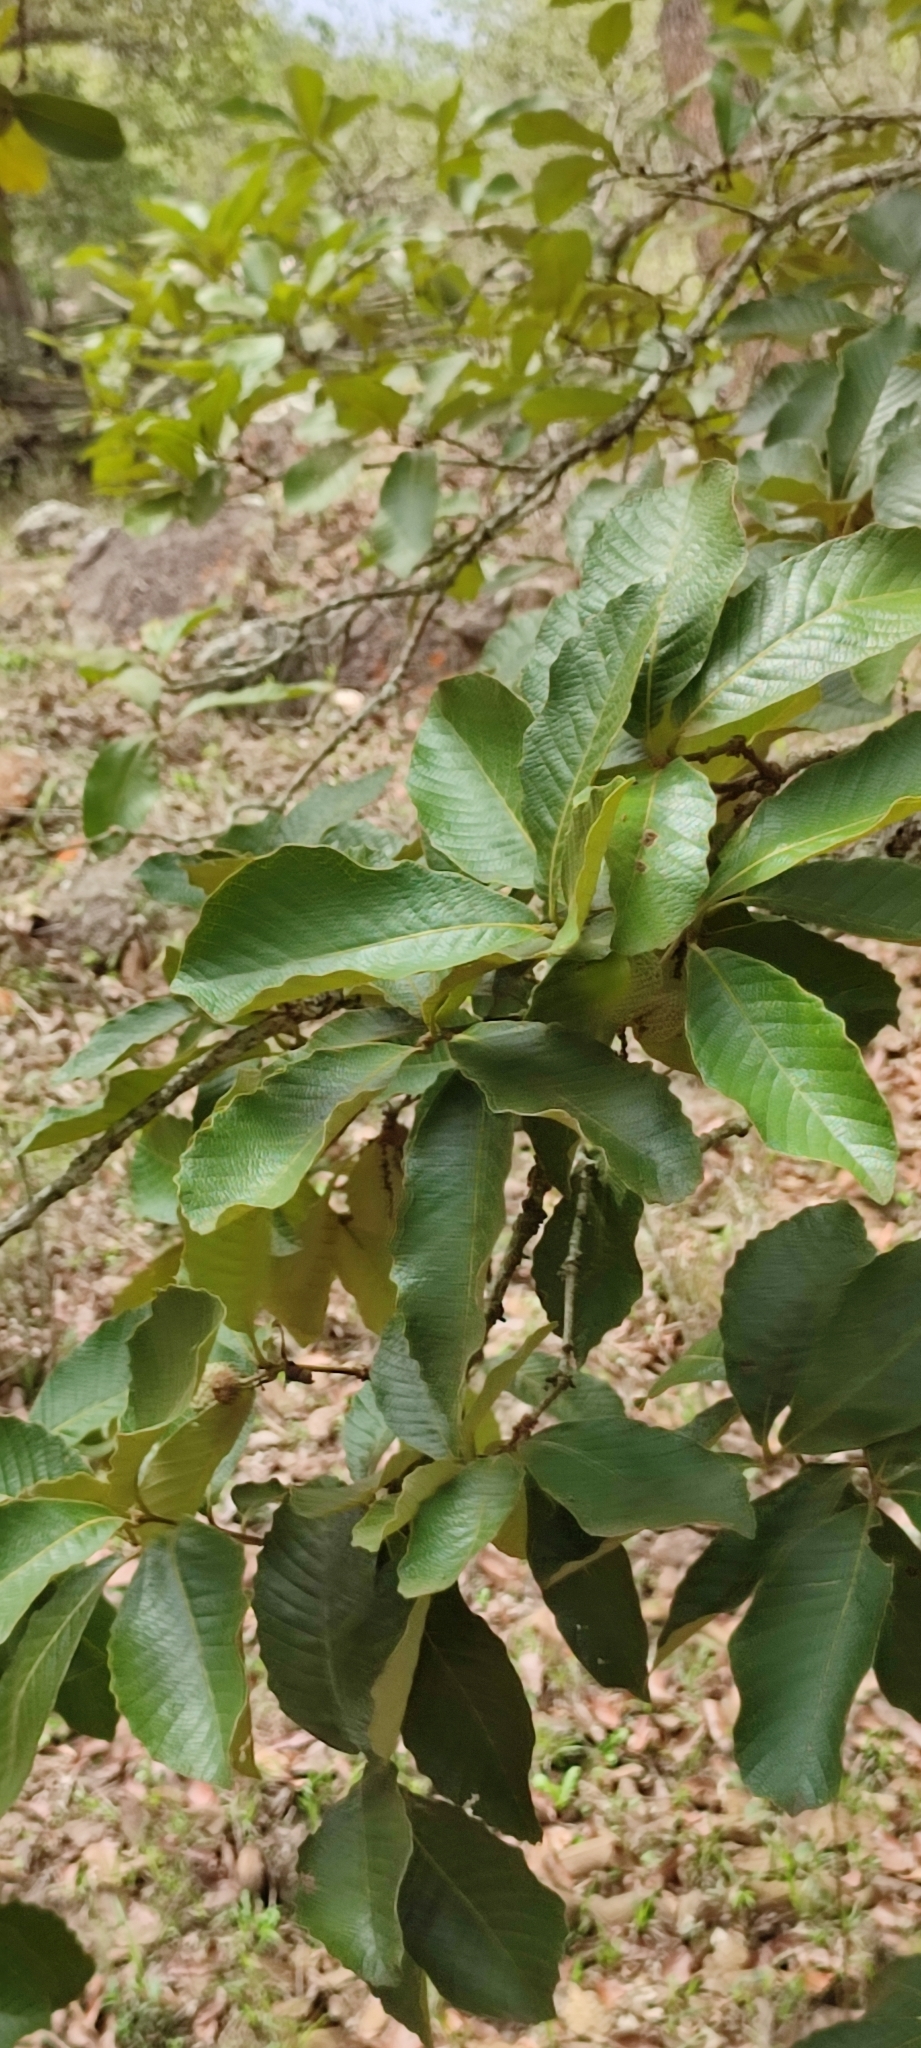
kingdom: Plantae
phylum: Tracheophyta
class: Magnoliopsida
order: Fagales
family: Fagaceae
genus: Quercus
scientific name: Quercus magnoliifolia
